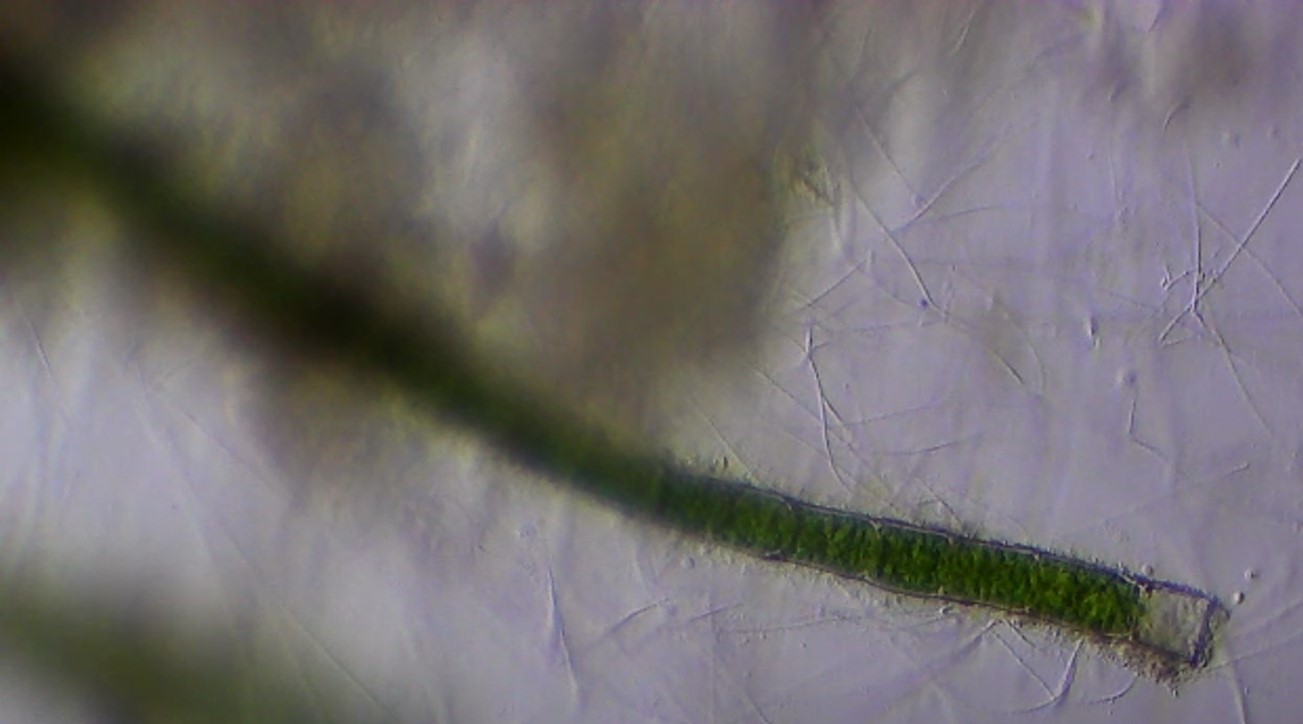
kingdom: Plantae
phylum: Chlorophyta
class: Chlorophyceae
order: Oedogoniales
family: Oedogoniaceae
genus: Oedogonium
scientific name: Oedogonium
